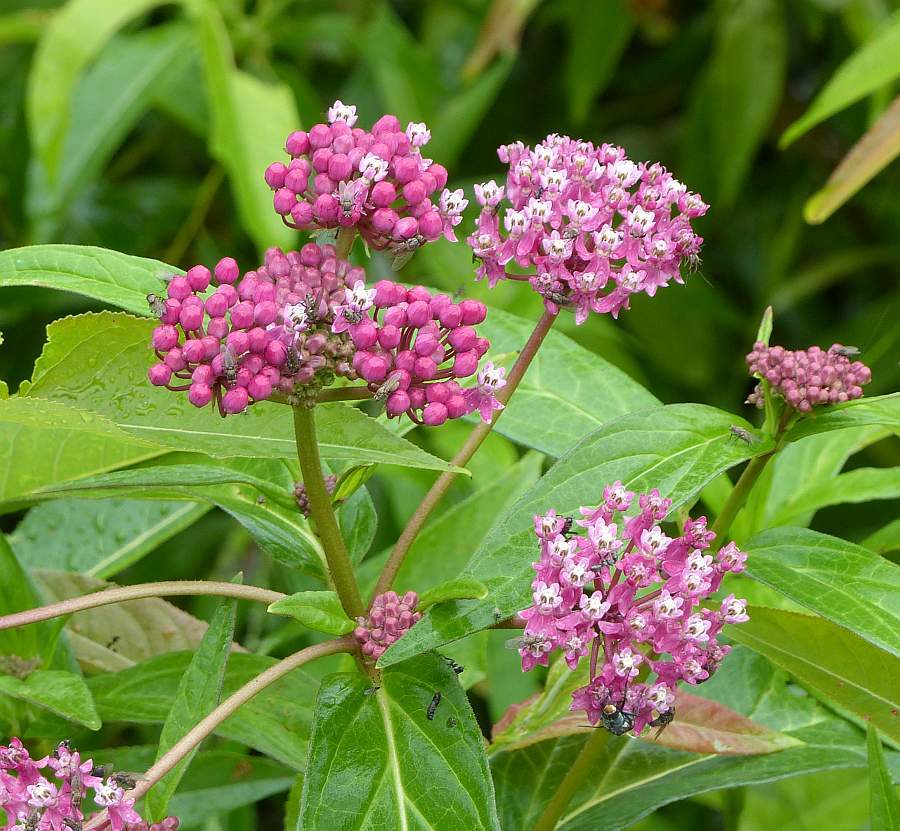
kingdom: Plantae
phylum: Tracheophyta
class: Magnoliopsida
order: Gentianales
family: Apocynaceae
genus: Asclepias
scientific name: Asclepias incarnata
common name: Swamp milkweed
